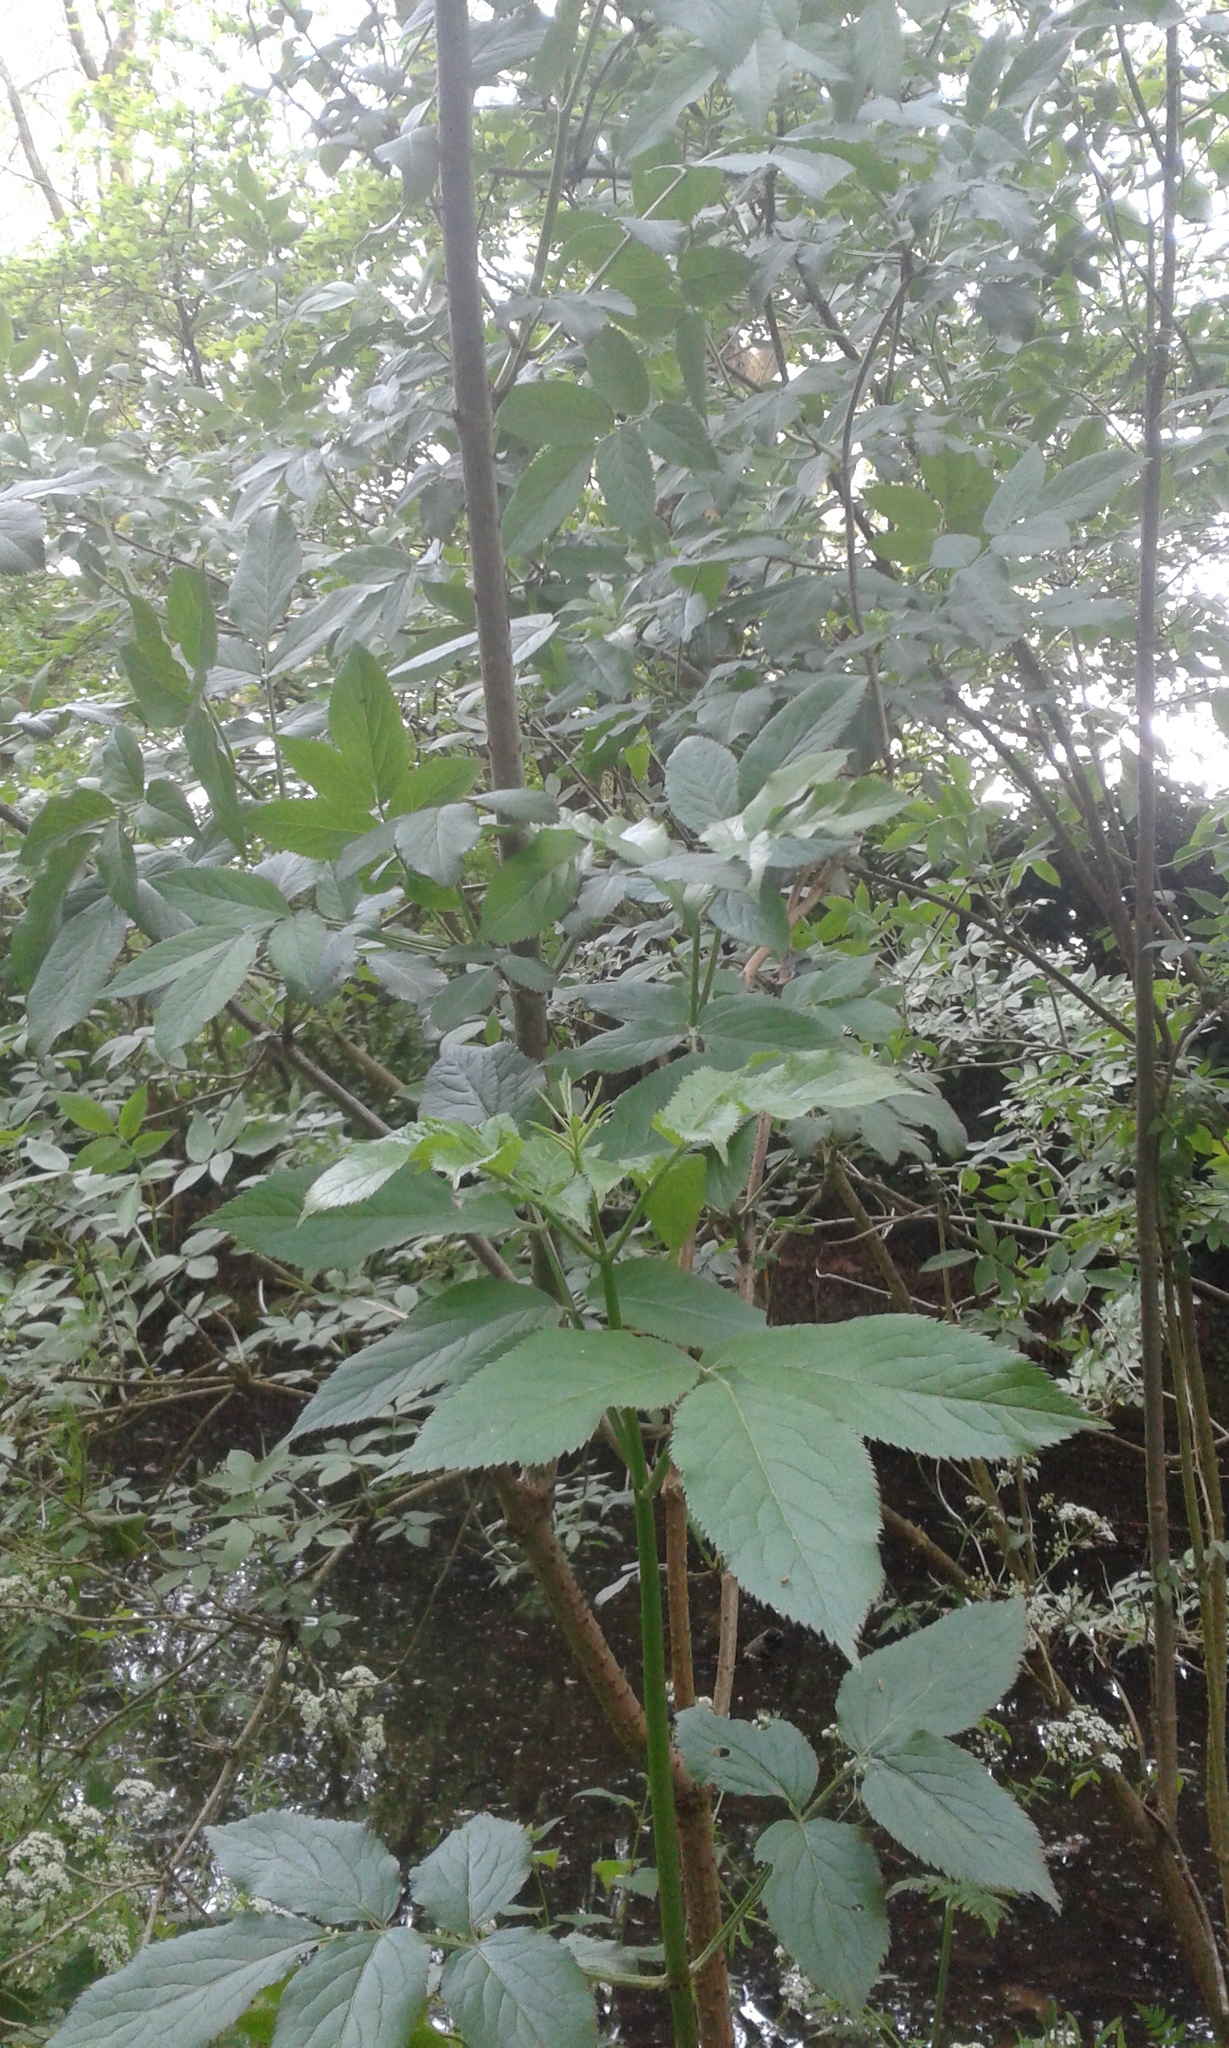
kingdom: Plantae
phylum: Tracheophyta
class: Magnoliopsida
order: Dipsacales
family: Viburnaceae
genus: Sambucus
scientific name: Sambucus nigra
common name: Elder
